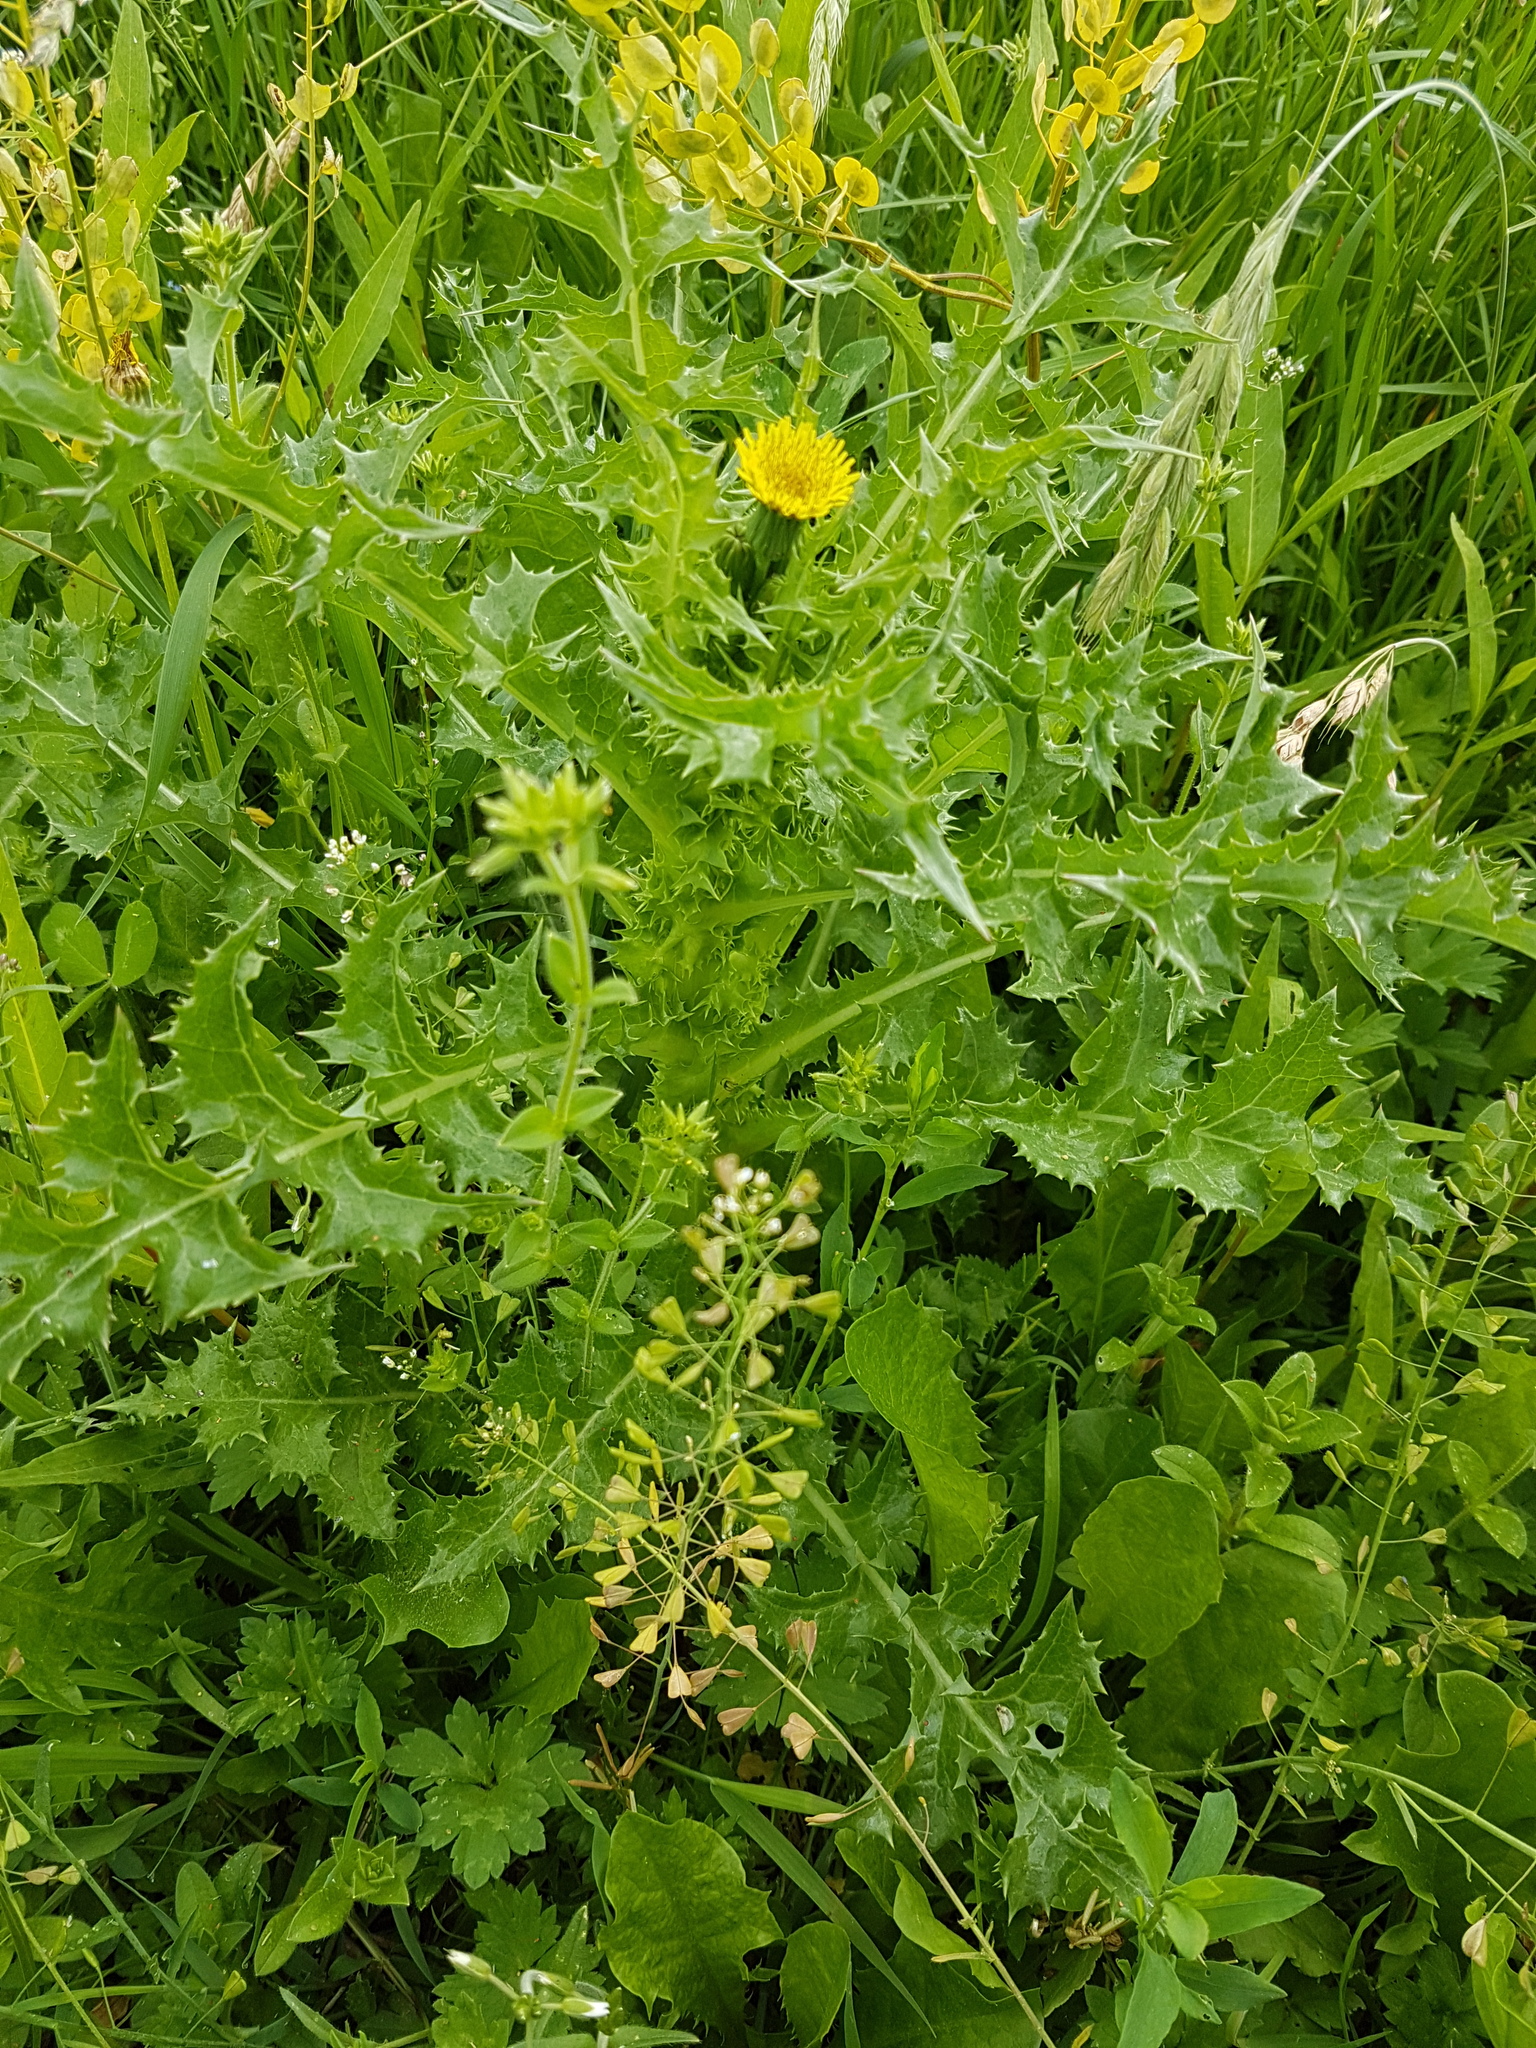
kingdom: Plantae
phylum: Tracheophyta
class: Magnoliopsida
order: Asterales
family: Asteraceae
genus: Sonchus
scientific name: Sonchus asper
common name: Prickly sow-thistle
